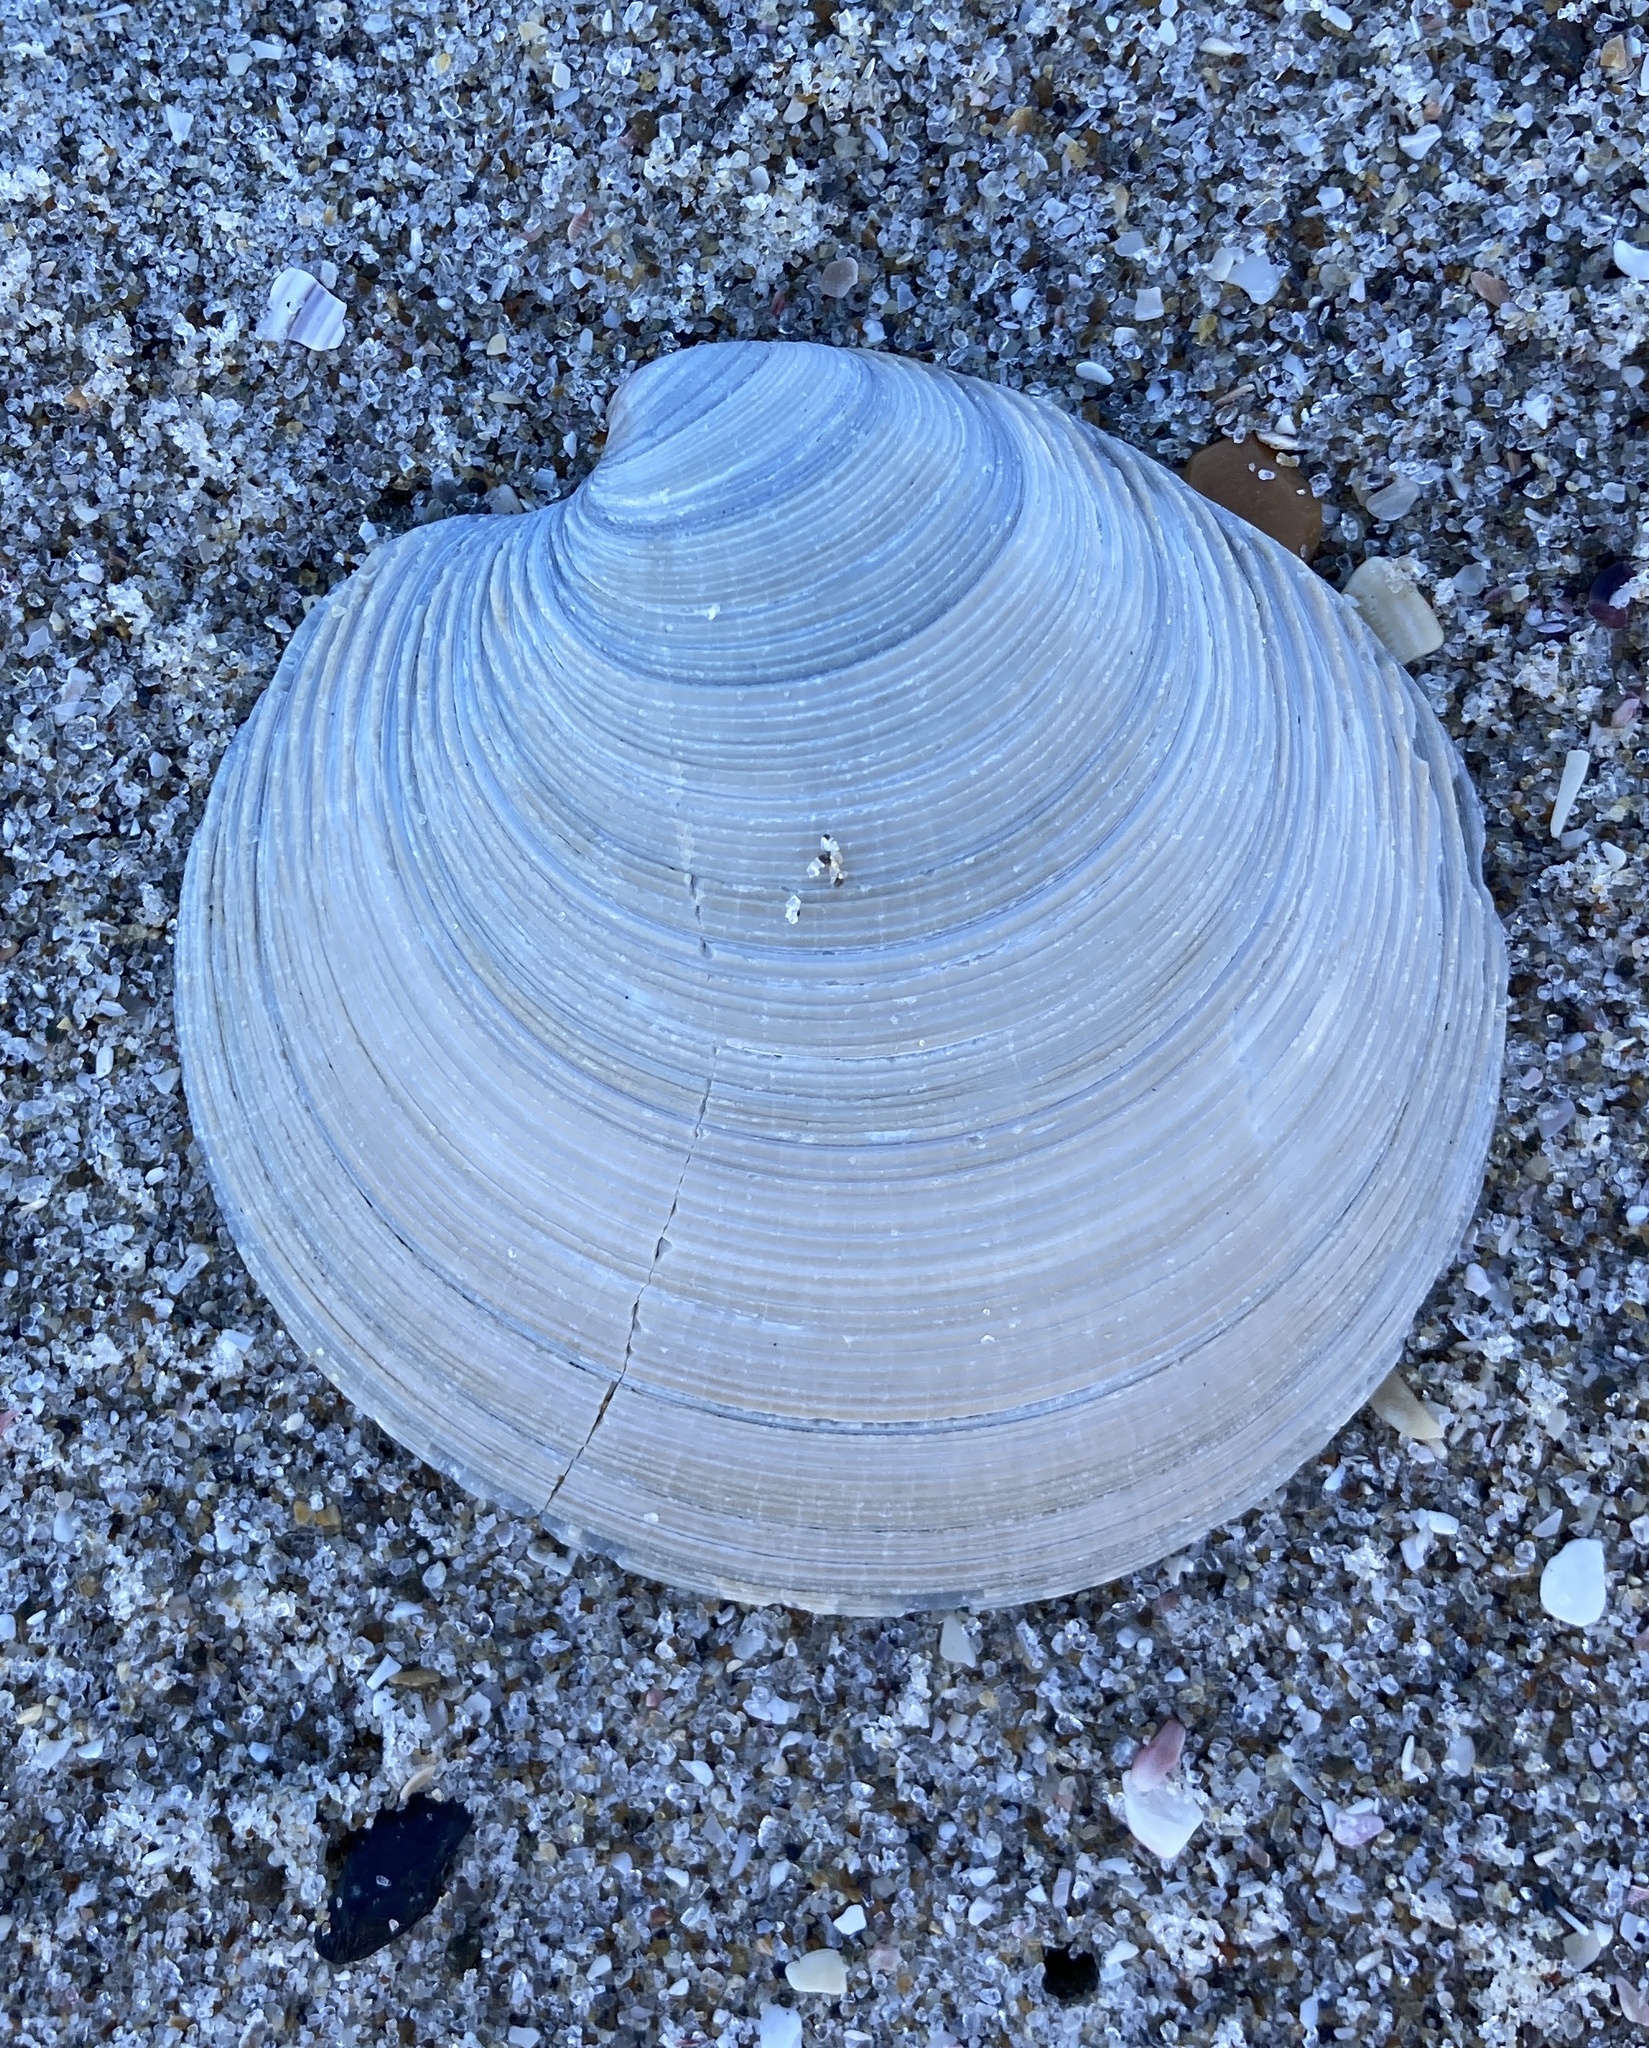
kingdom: Animalia
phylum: Mollusca
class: Bivalvia
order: Venerida
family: Veneridae
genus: Dosinia
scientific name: Dosinia anus
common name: Old-woman dosinia
